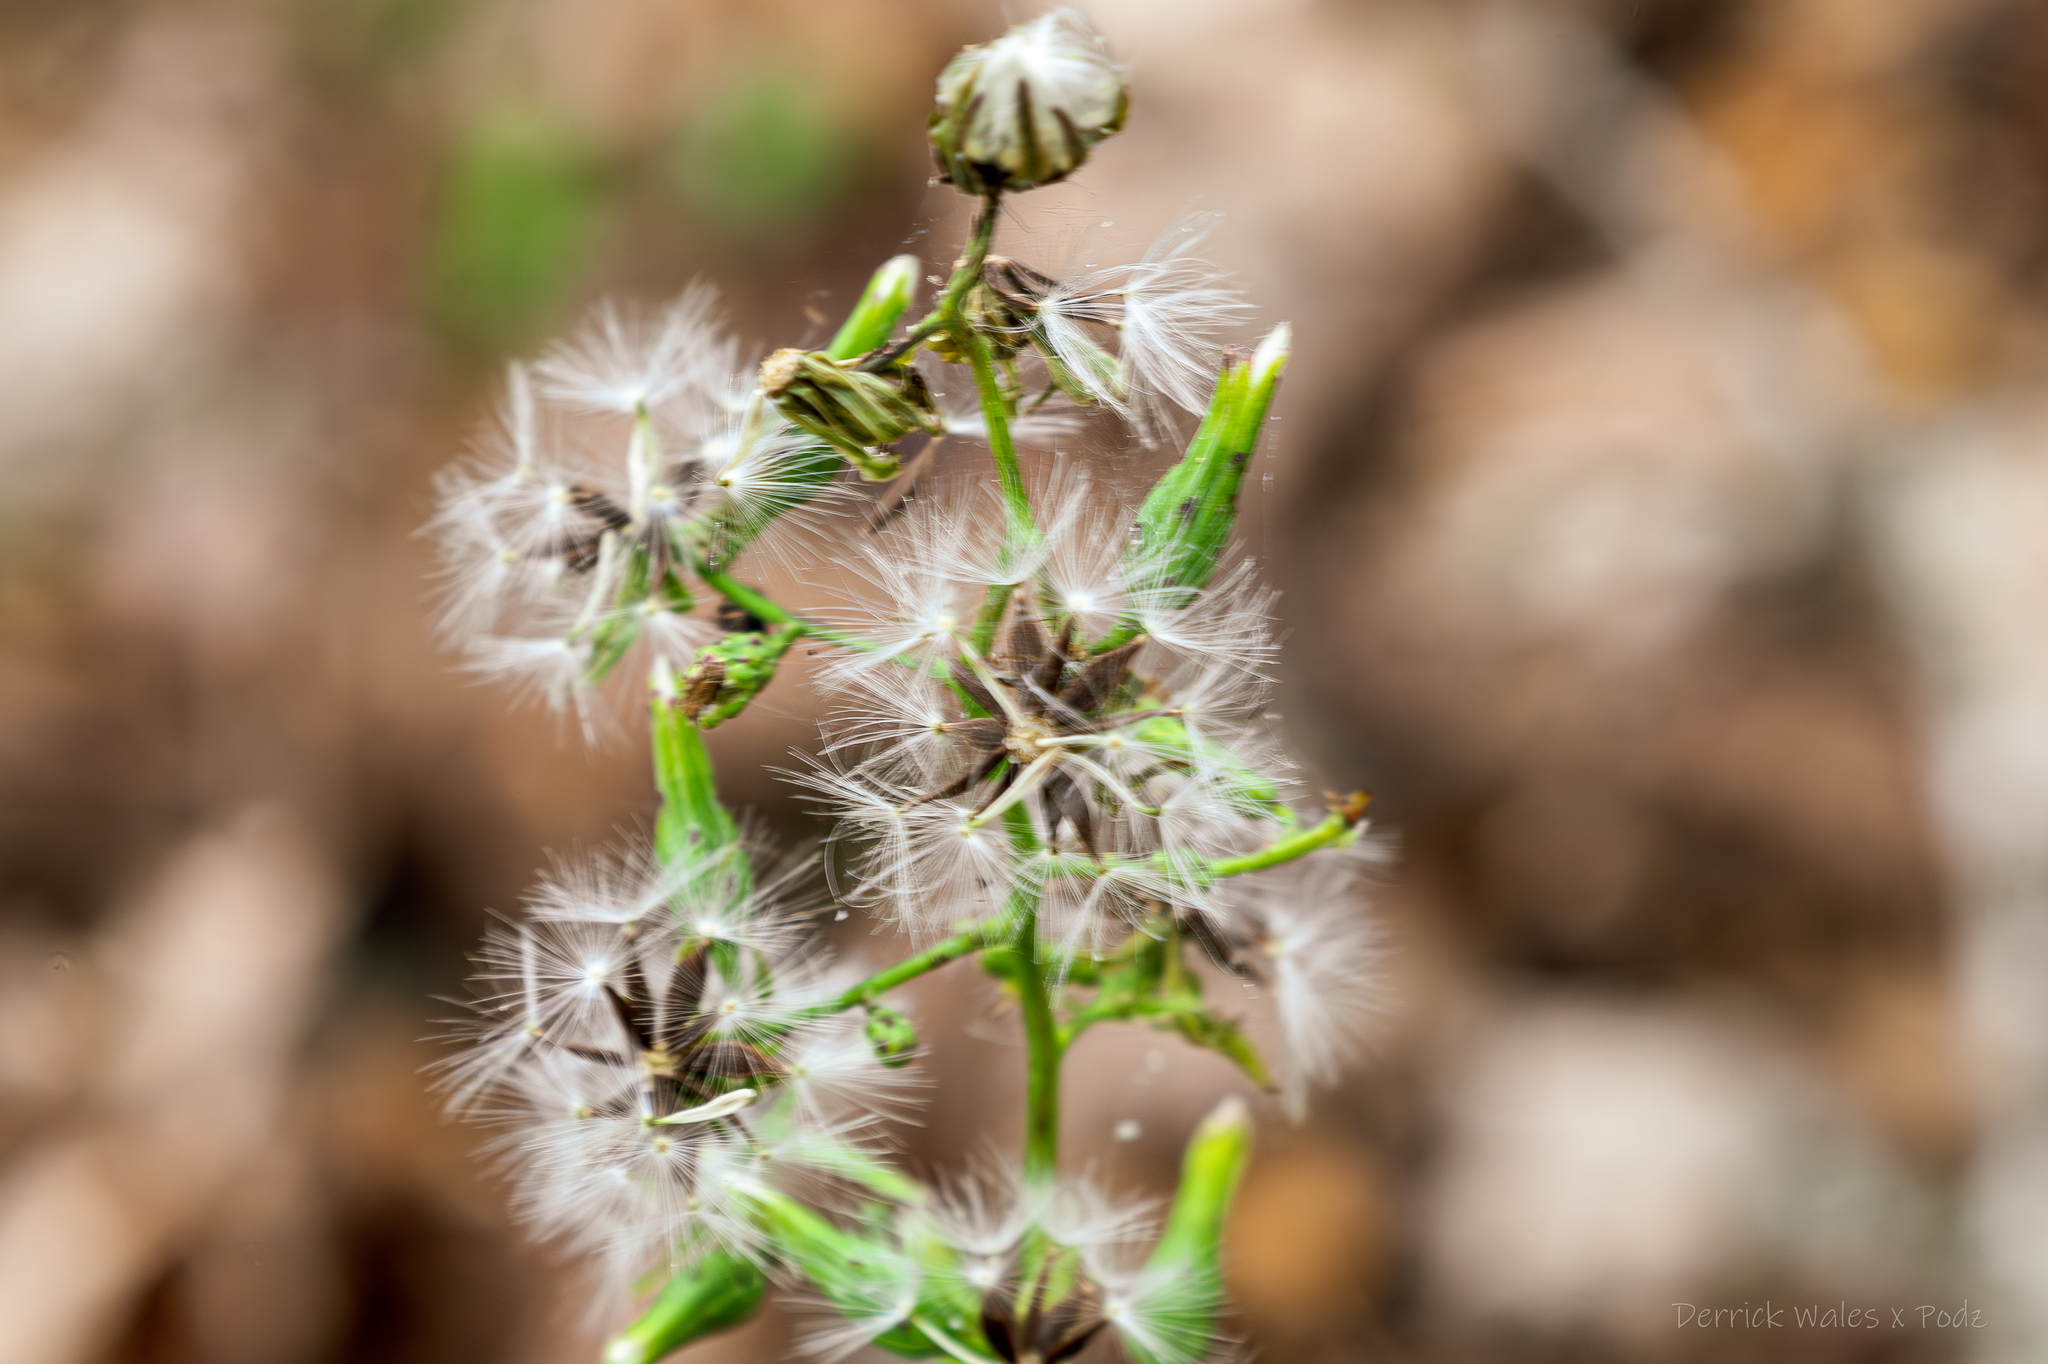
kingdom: Plantae
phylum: Tracheophyta
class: Magnoliopsida
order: Asterales
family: Asteraceae
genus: Lactuca
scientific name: Lactuca floridana
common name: Woodland lettuce
